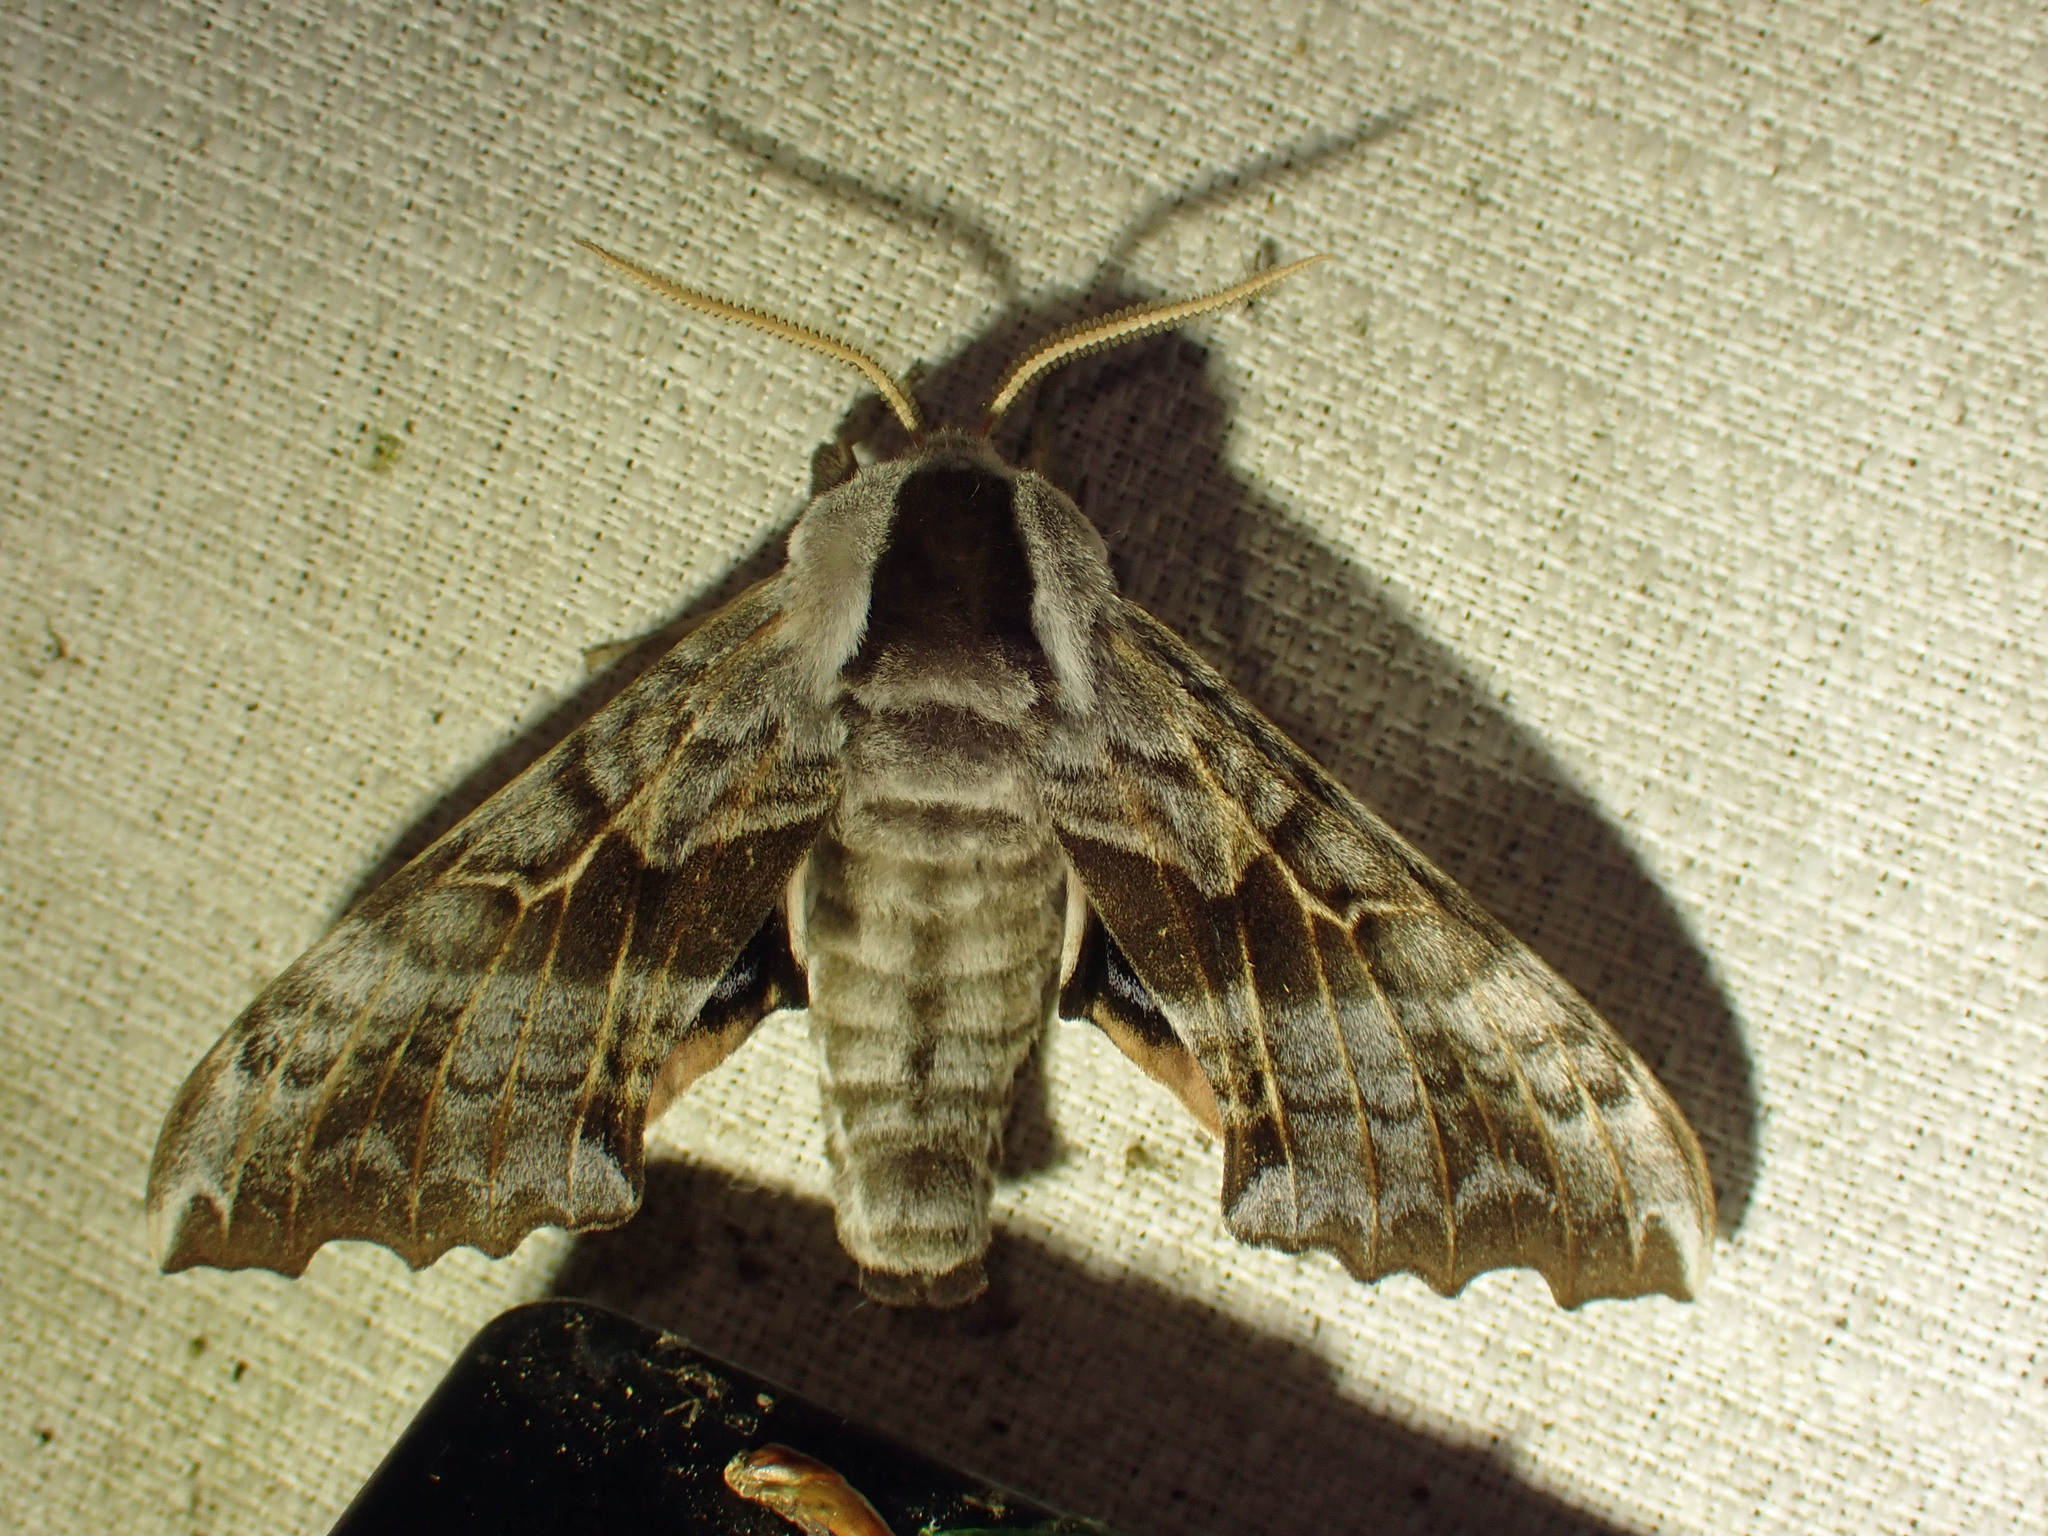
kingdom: Animalia
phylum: Arthropoda
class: Insecta
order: Lepidoptera
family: Sphingidae
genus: Smerinthus
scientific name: Smerinthus cerisyi
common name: Cerisy's sphinx moth
